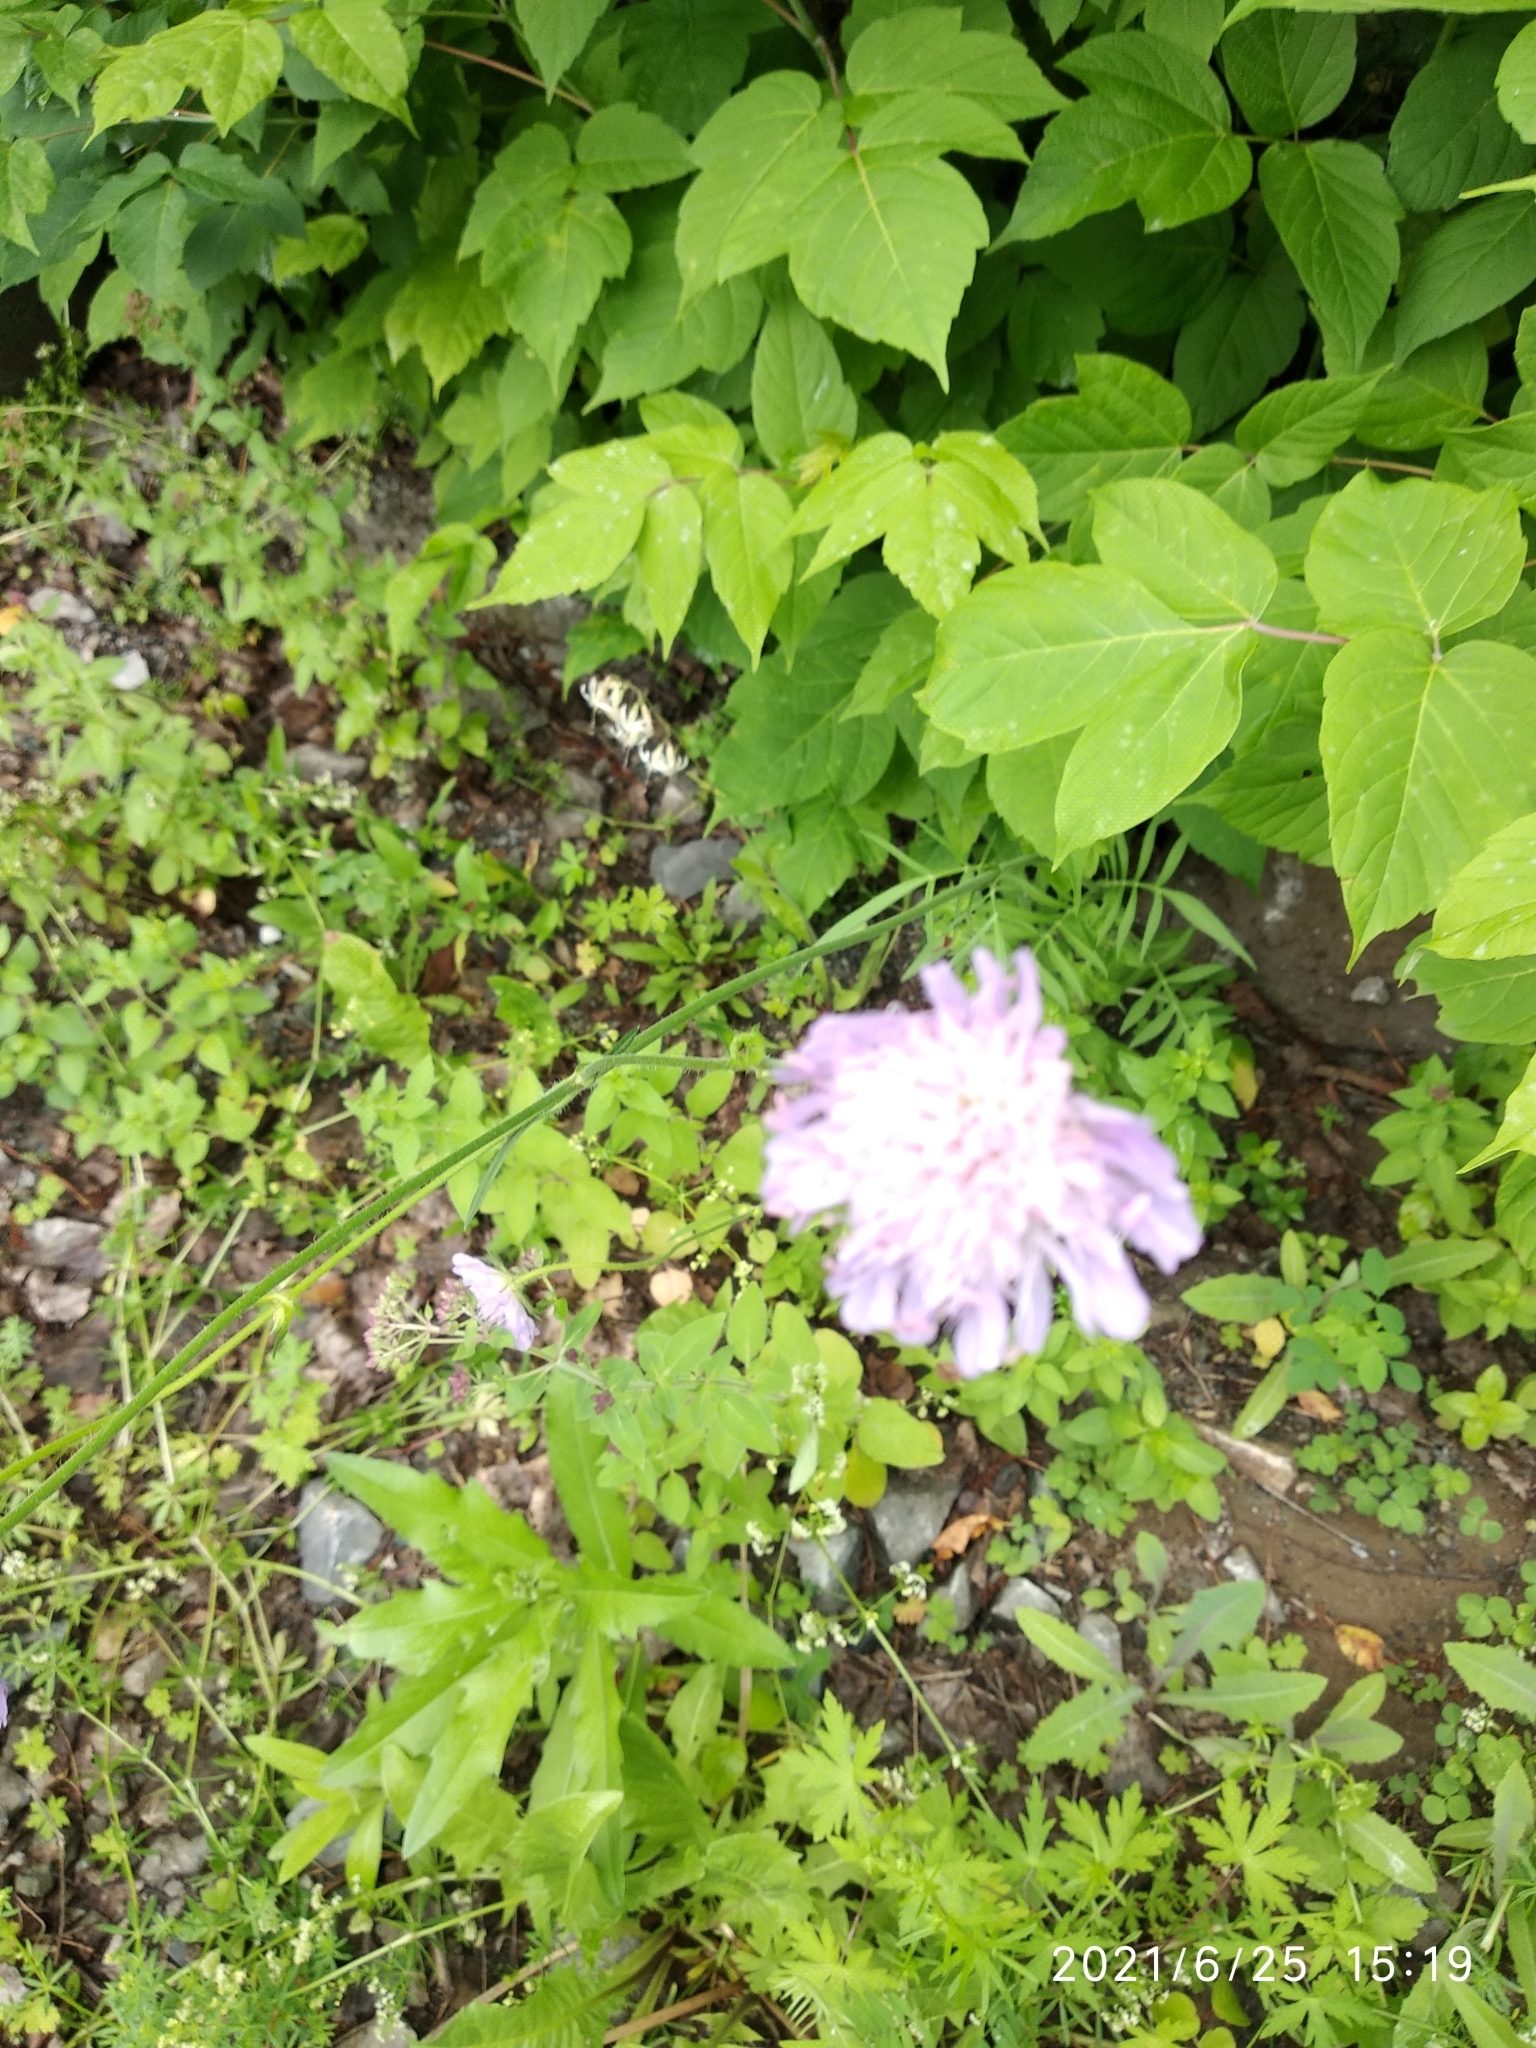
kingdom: Plantae
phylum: Tracheophyta
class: Magnoliopsida
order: Dipsacales
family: Caprifoliaceae
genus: Knautia
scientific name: Knautia arvensis
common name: Field scabiosa
